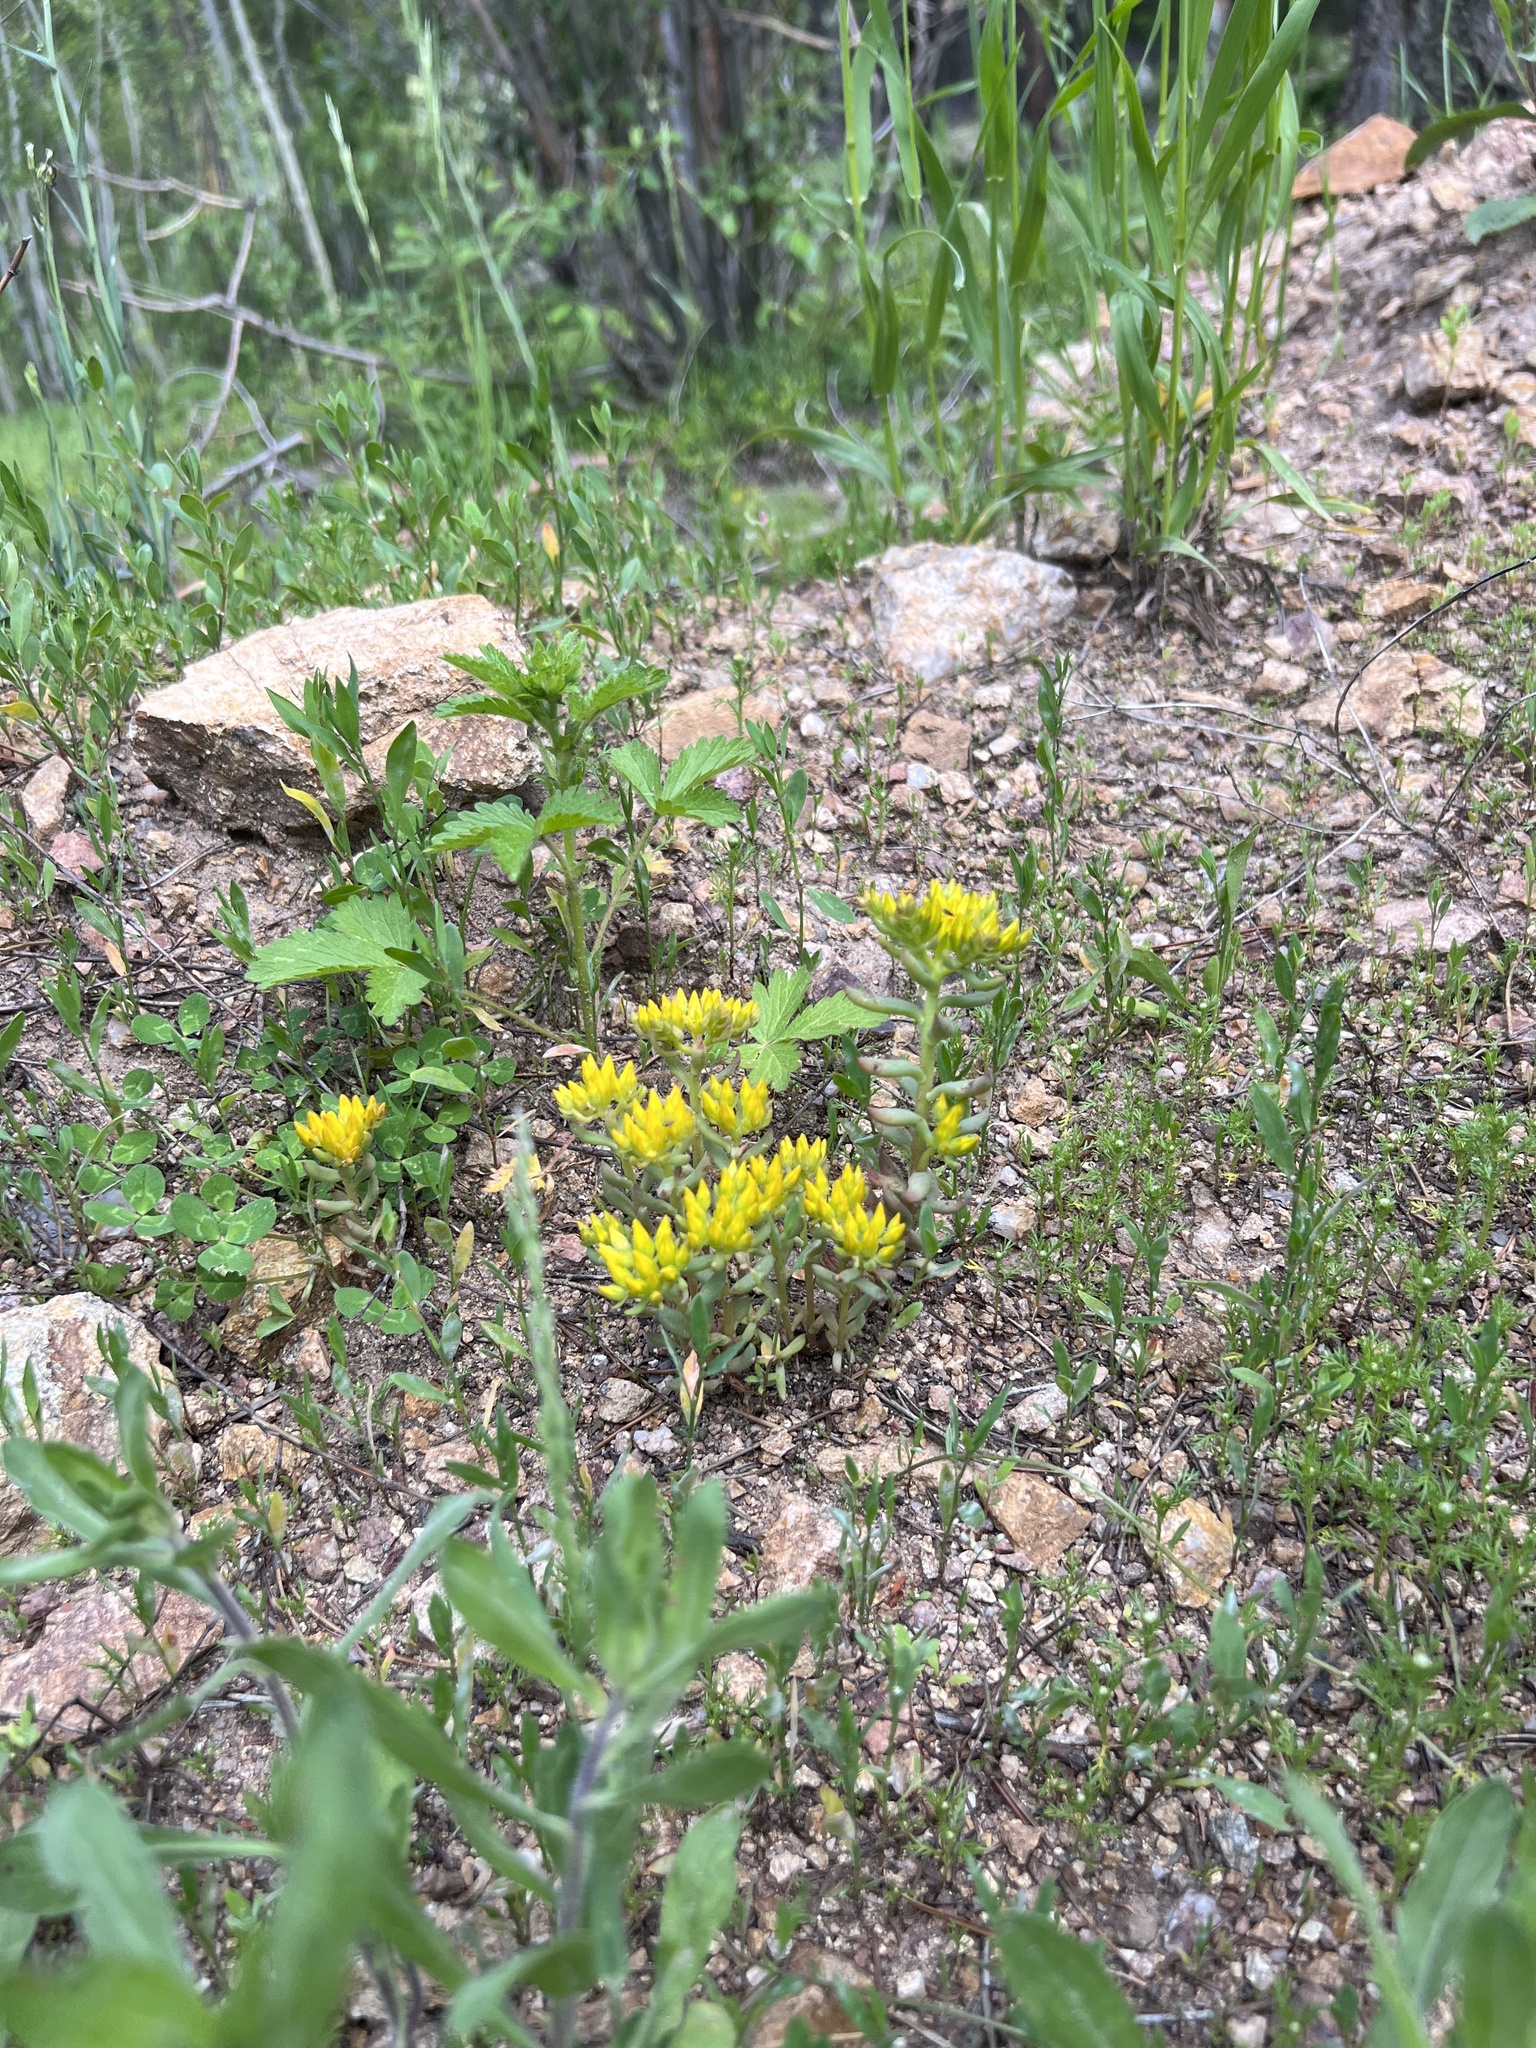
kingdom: Plantae
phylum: Tracheophyta
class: Magnoliopsida
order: Saxifragales
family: Crassulaceae
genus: Sedum
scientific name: Sedum lanceolatum
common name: Common stonecrop
